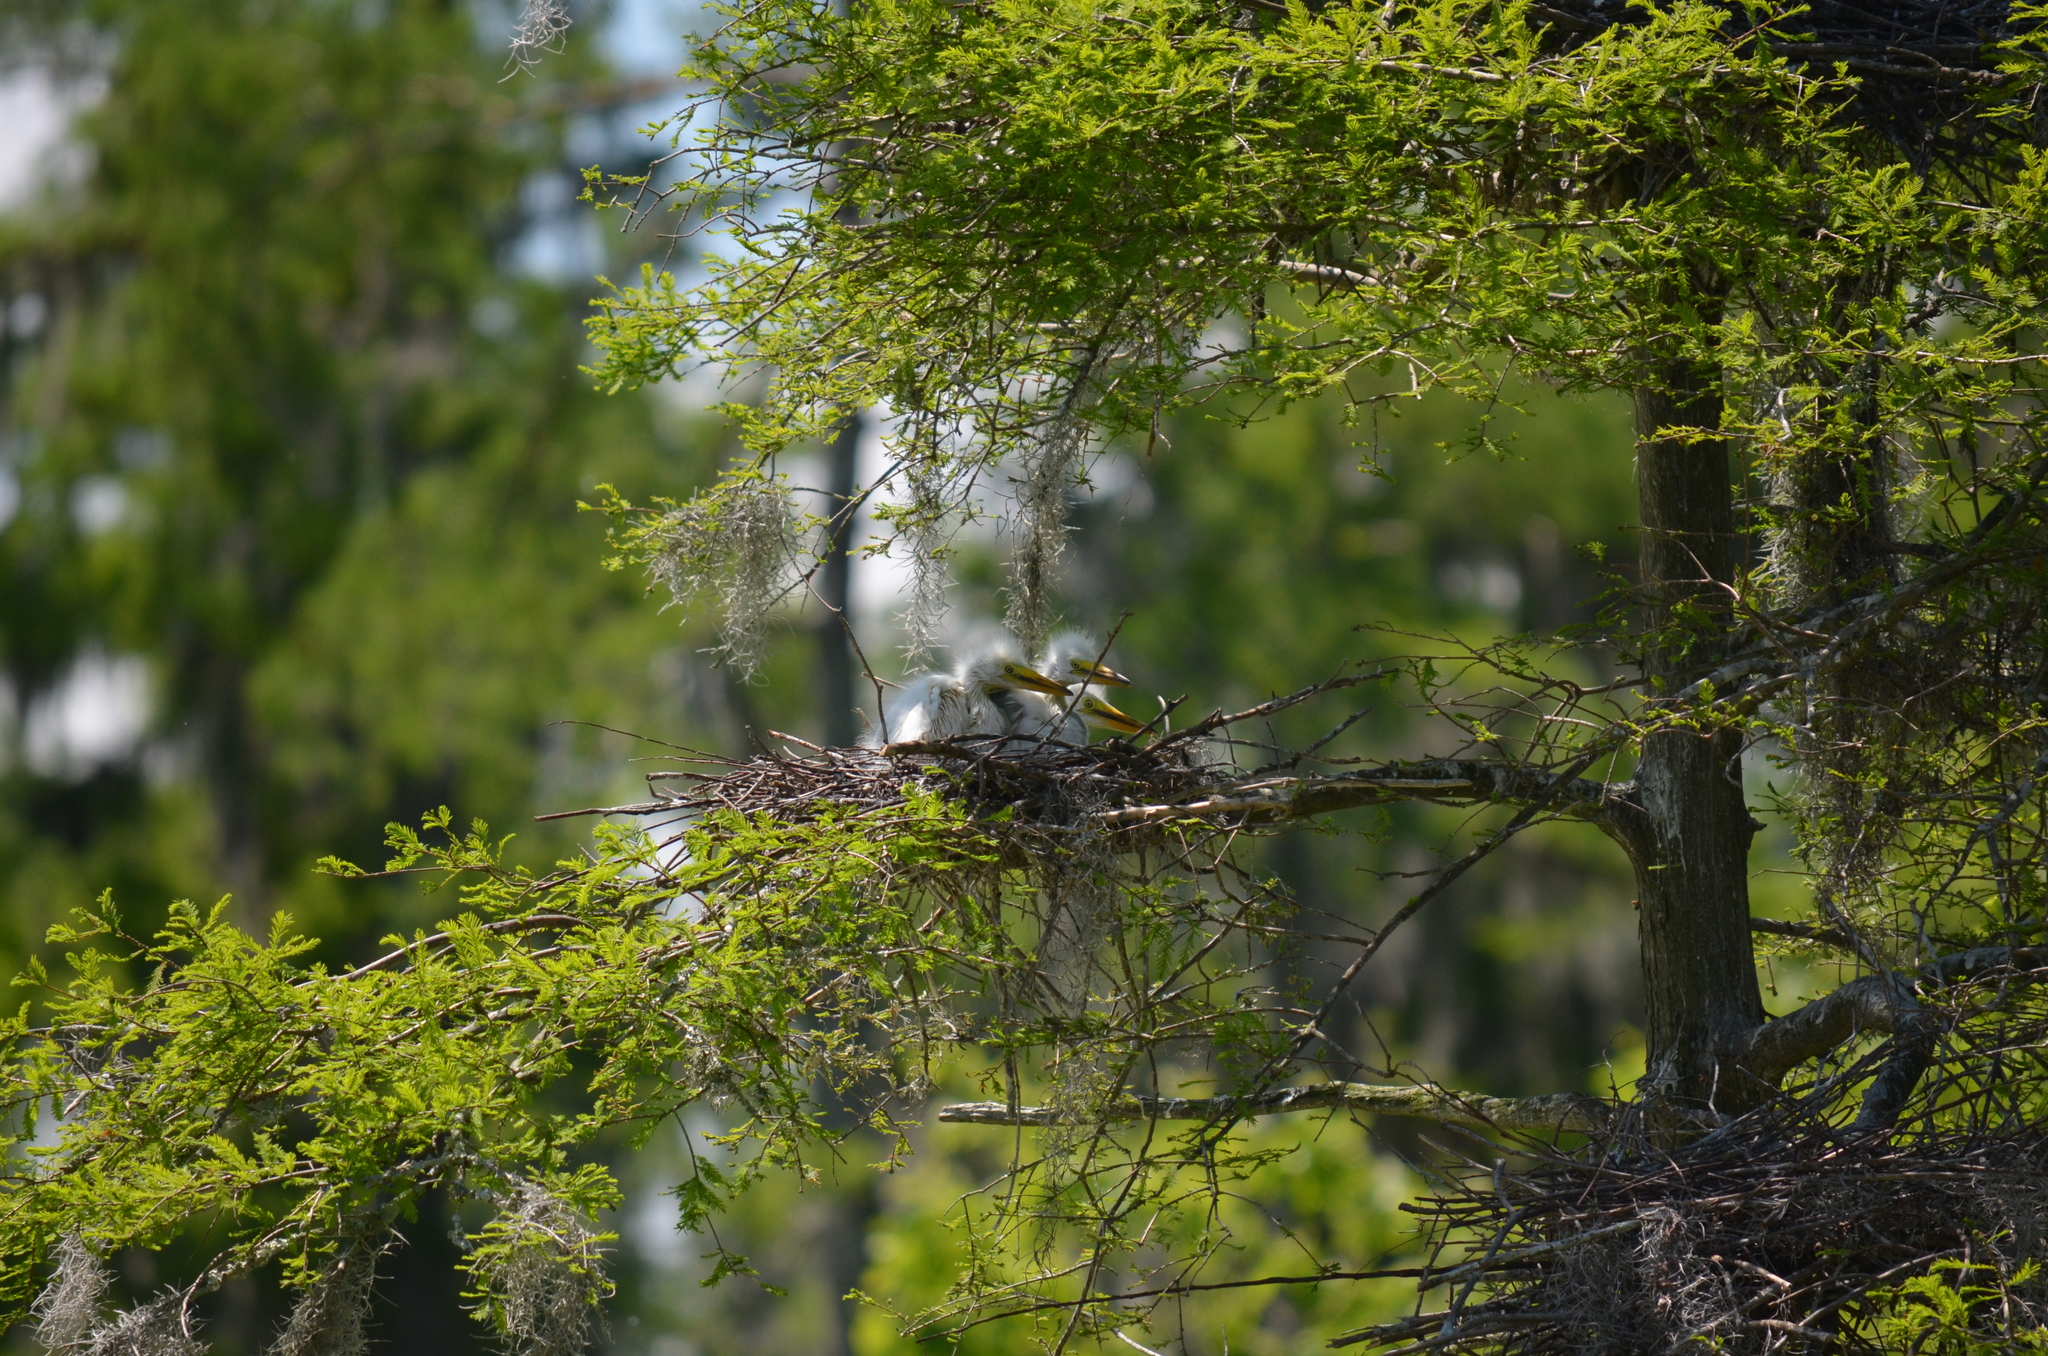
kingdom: Animalia
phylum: Chordata
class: Aves
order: Pelecaniformes
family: Ardeidae
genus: Ardea
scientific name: Ardea alba
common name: Great egret
